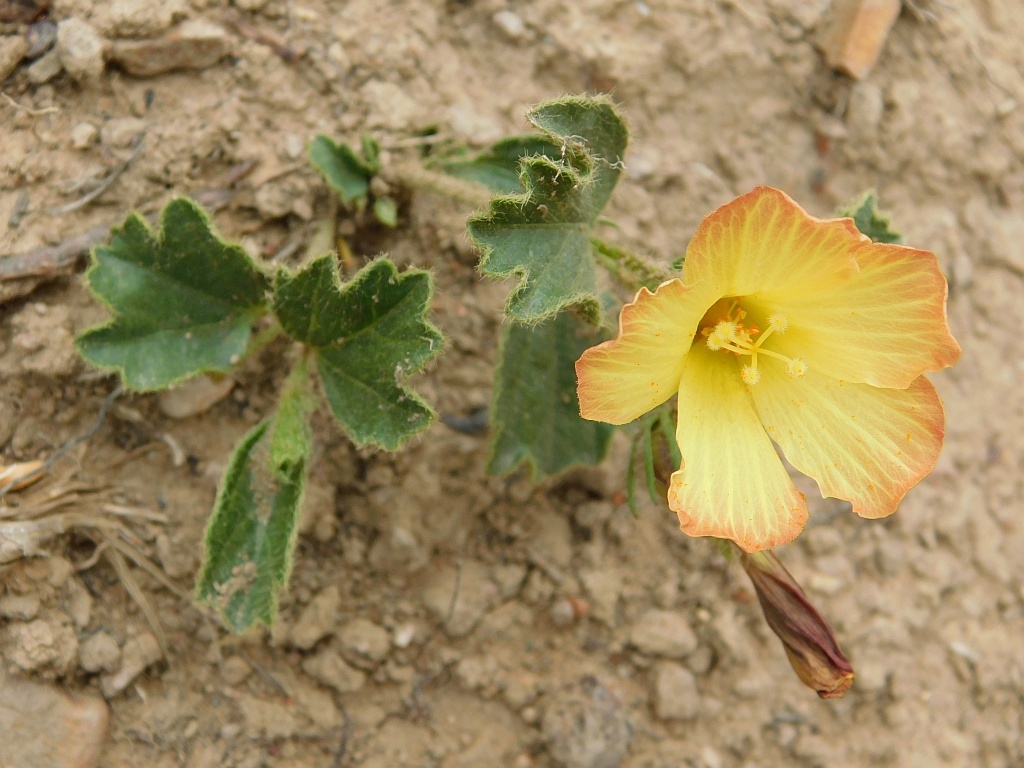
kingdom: Plantae
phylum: Tracheophyta
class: Magnoliopsida
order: Malvales
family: Malvaceae
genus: Hibiscus
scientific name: Hibiscus aethiopicus
